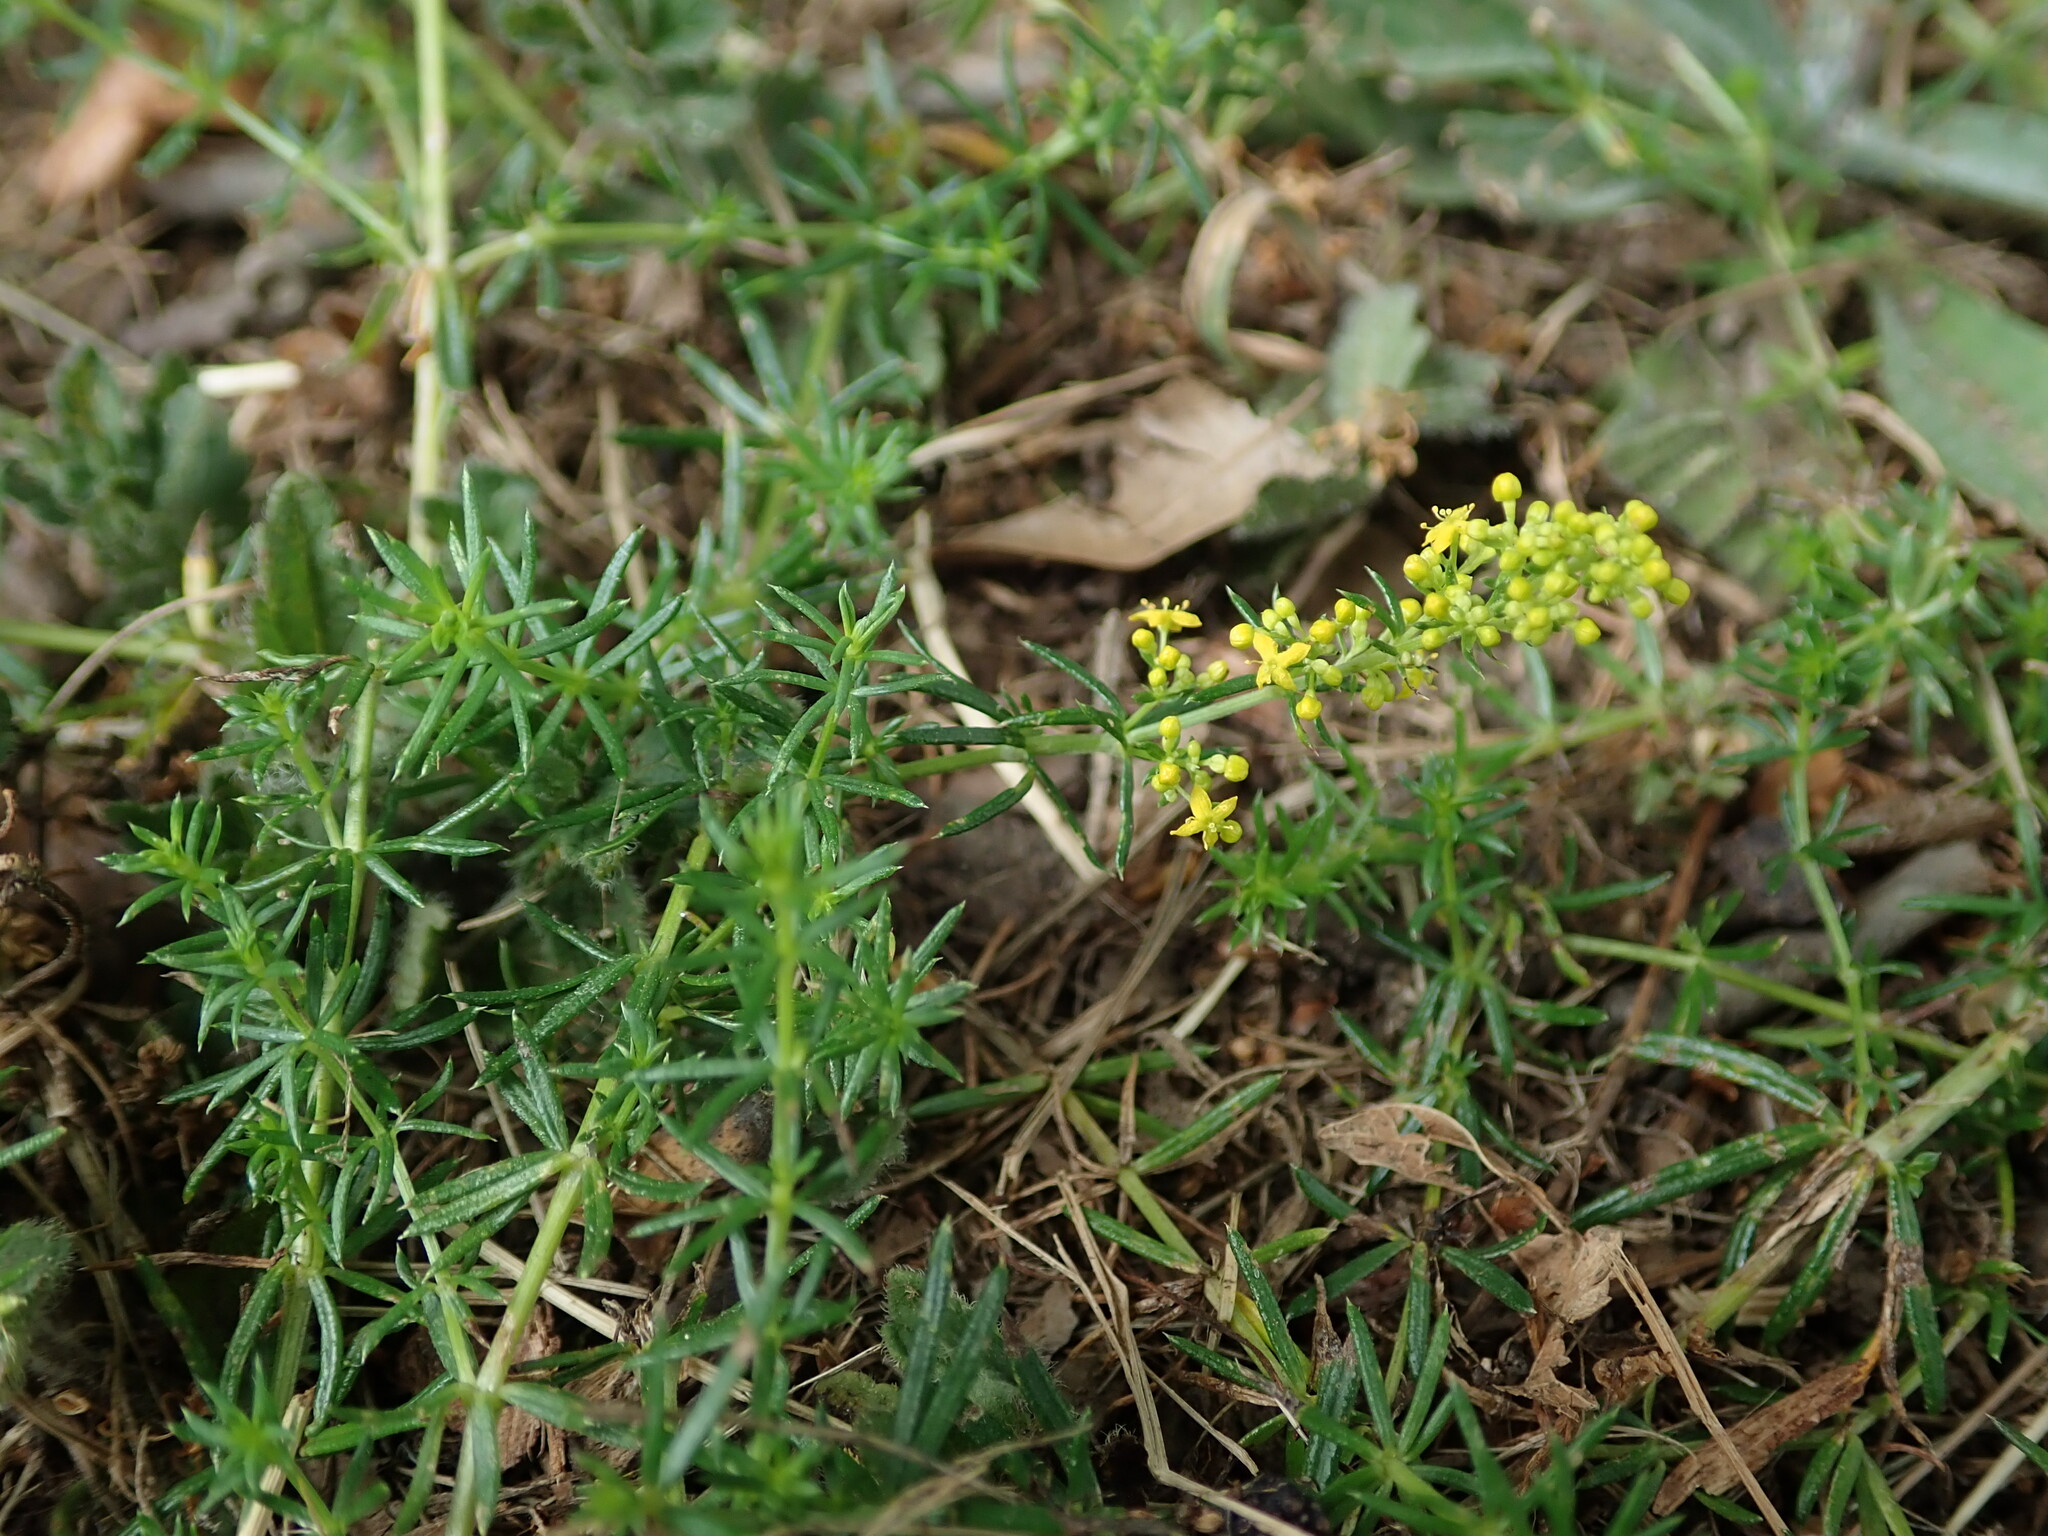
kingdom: Plantae
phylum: Tracheophyta
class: Magnoliopsida
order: Gentianales
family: Rubiaceae
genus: Galium
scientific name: Galium verum
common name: Lady's bedstraw
